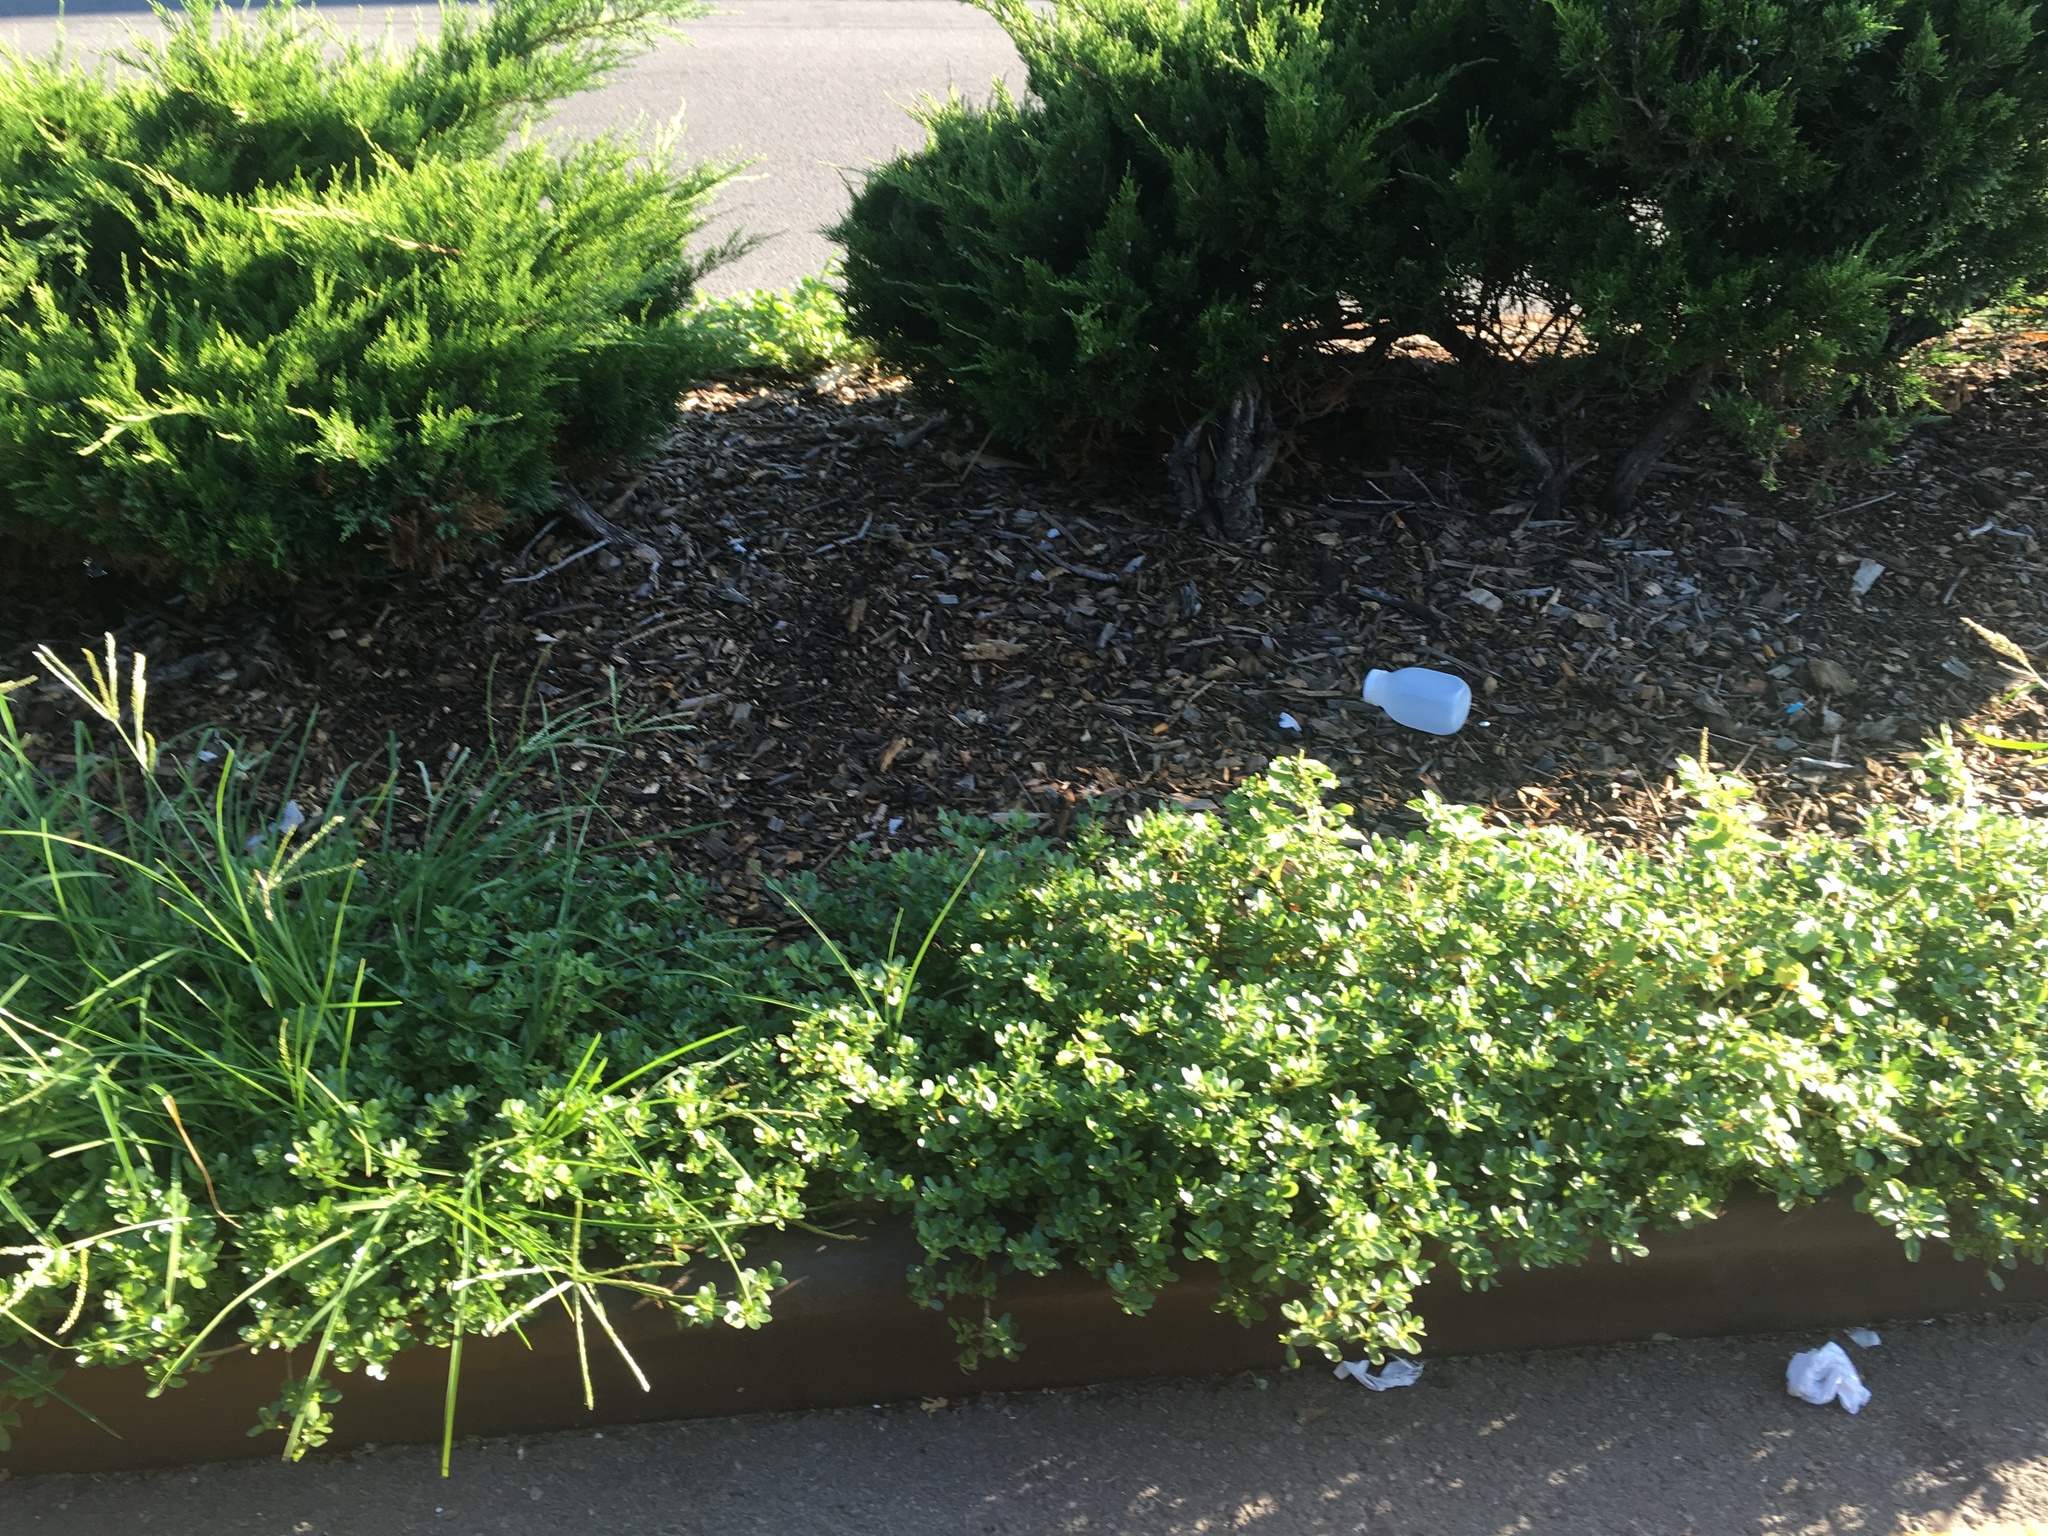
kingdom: Plantae
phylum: Tracheophyta
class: Magnoliopsida
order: Caryophyllales
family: Portulacaceae
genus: Portulaca
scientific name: Portulaca oleracea
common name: Common purslane
